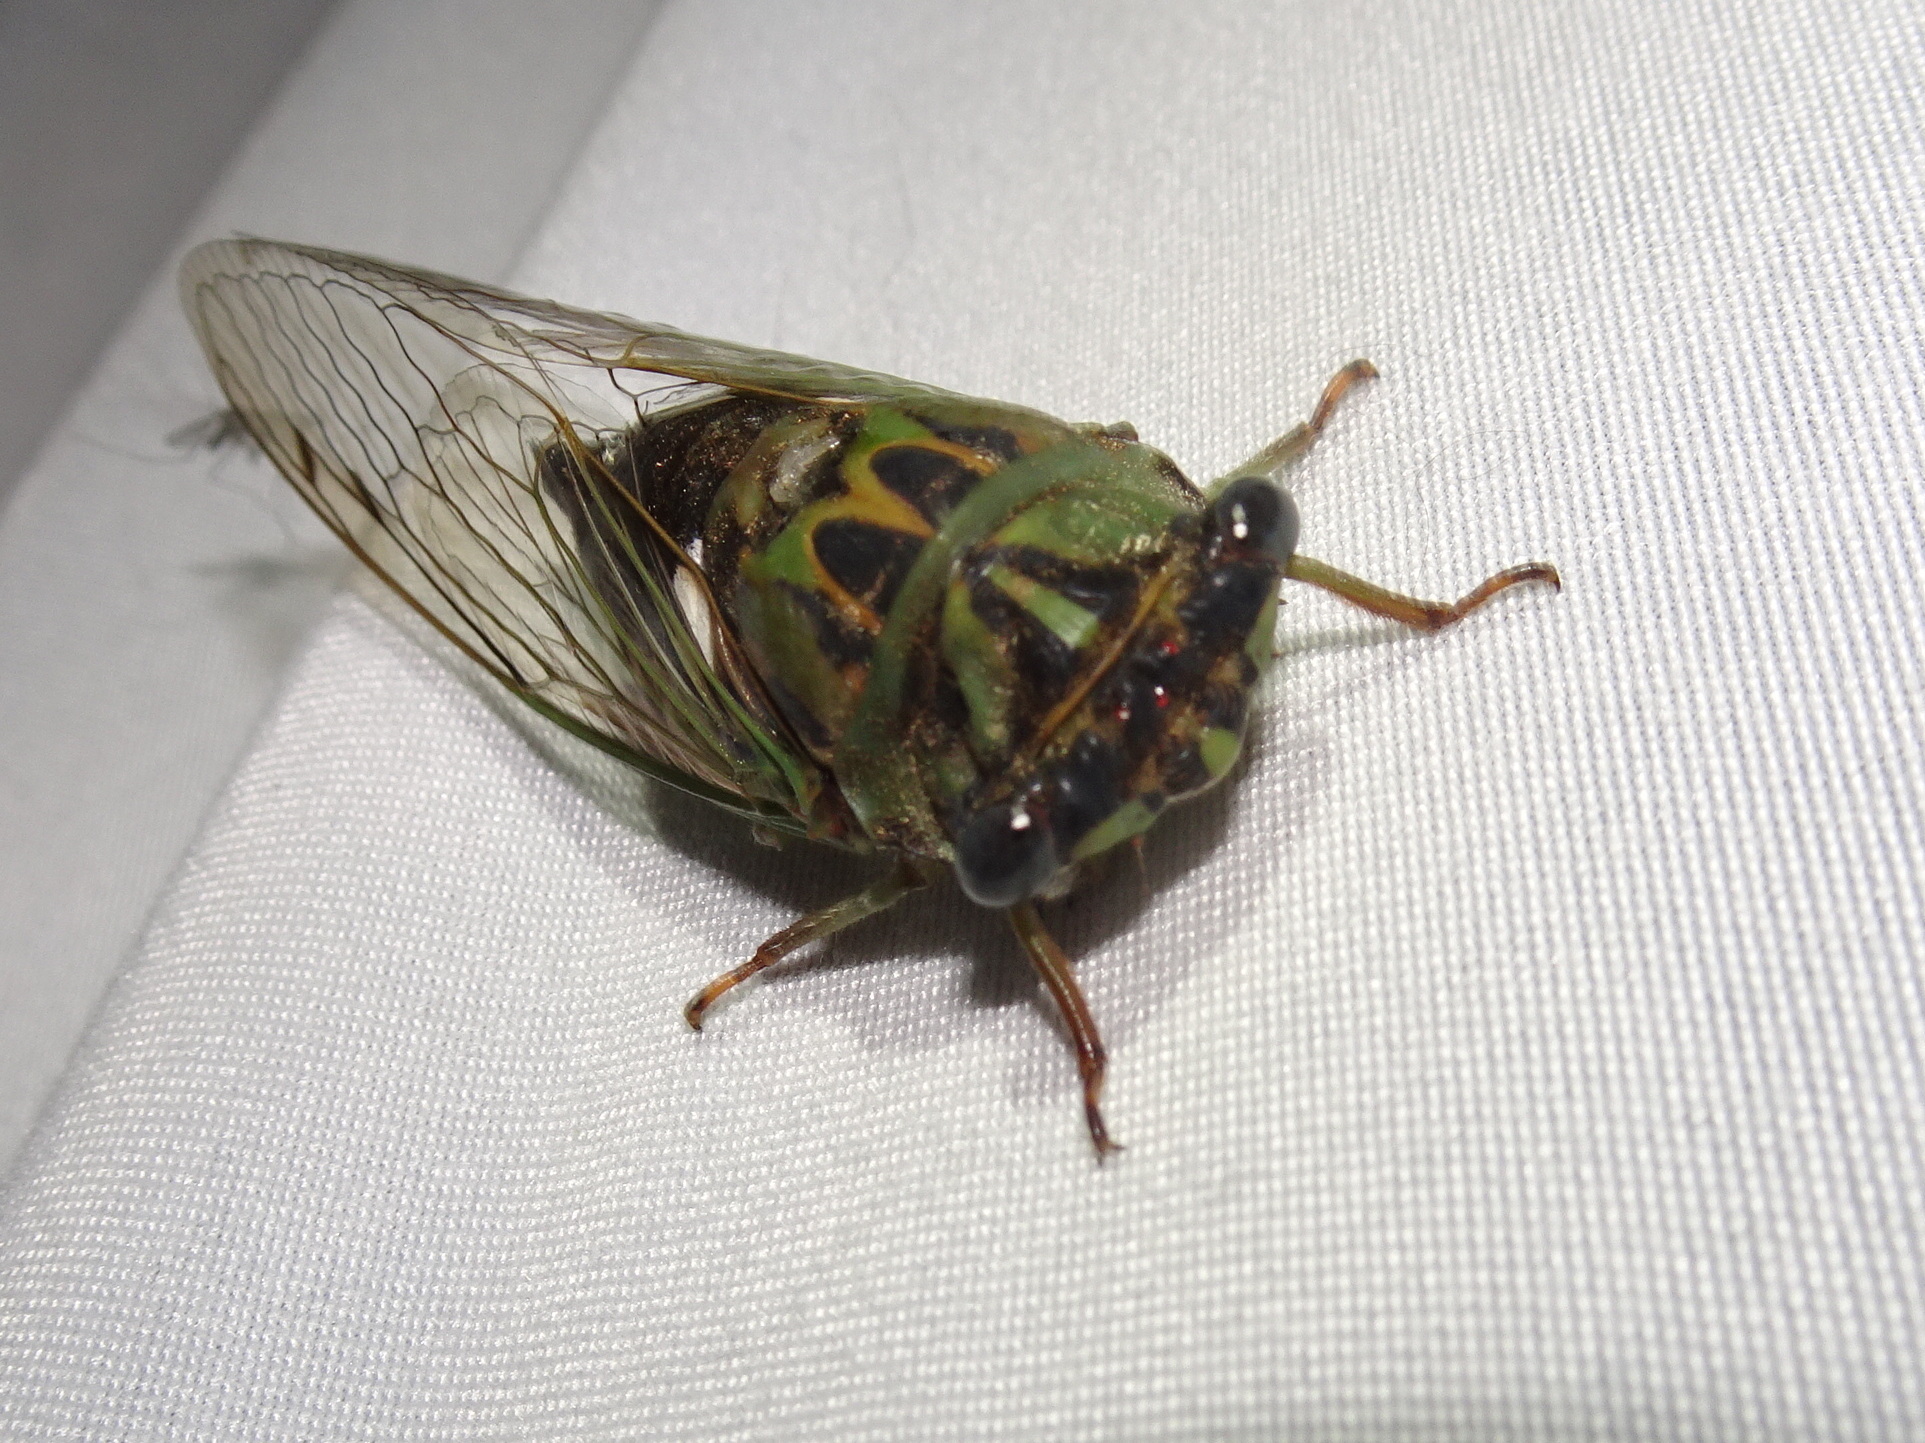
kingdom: Animalia
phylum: Arthropoda
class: Insecta
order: Hemiptera
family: Cicadidae
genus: Neotibicen
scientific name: Neotibicen pruinosus
